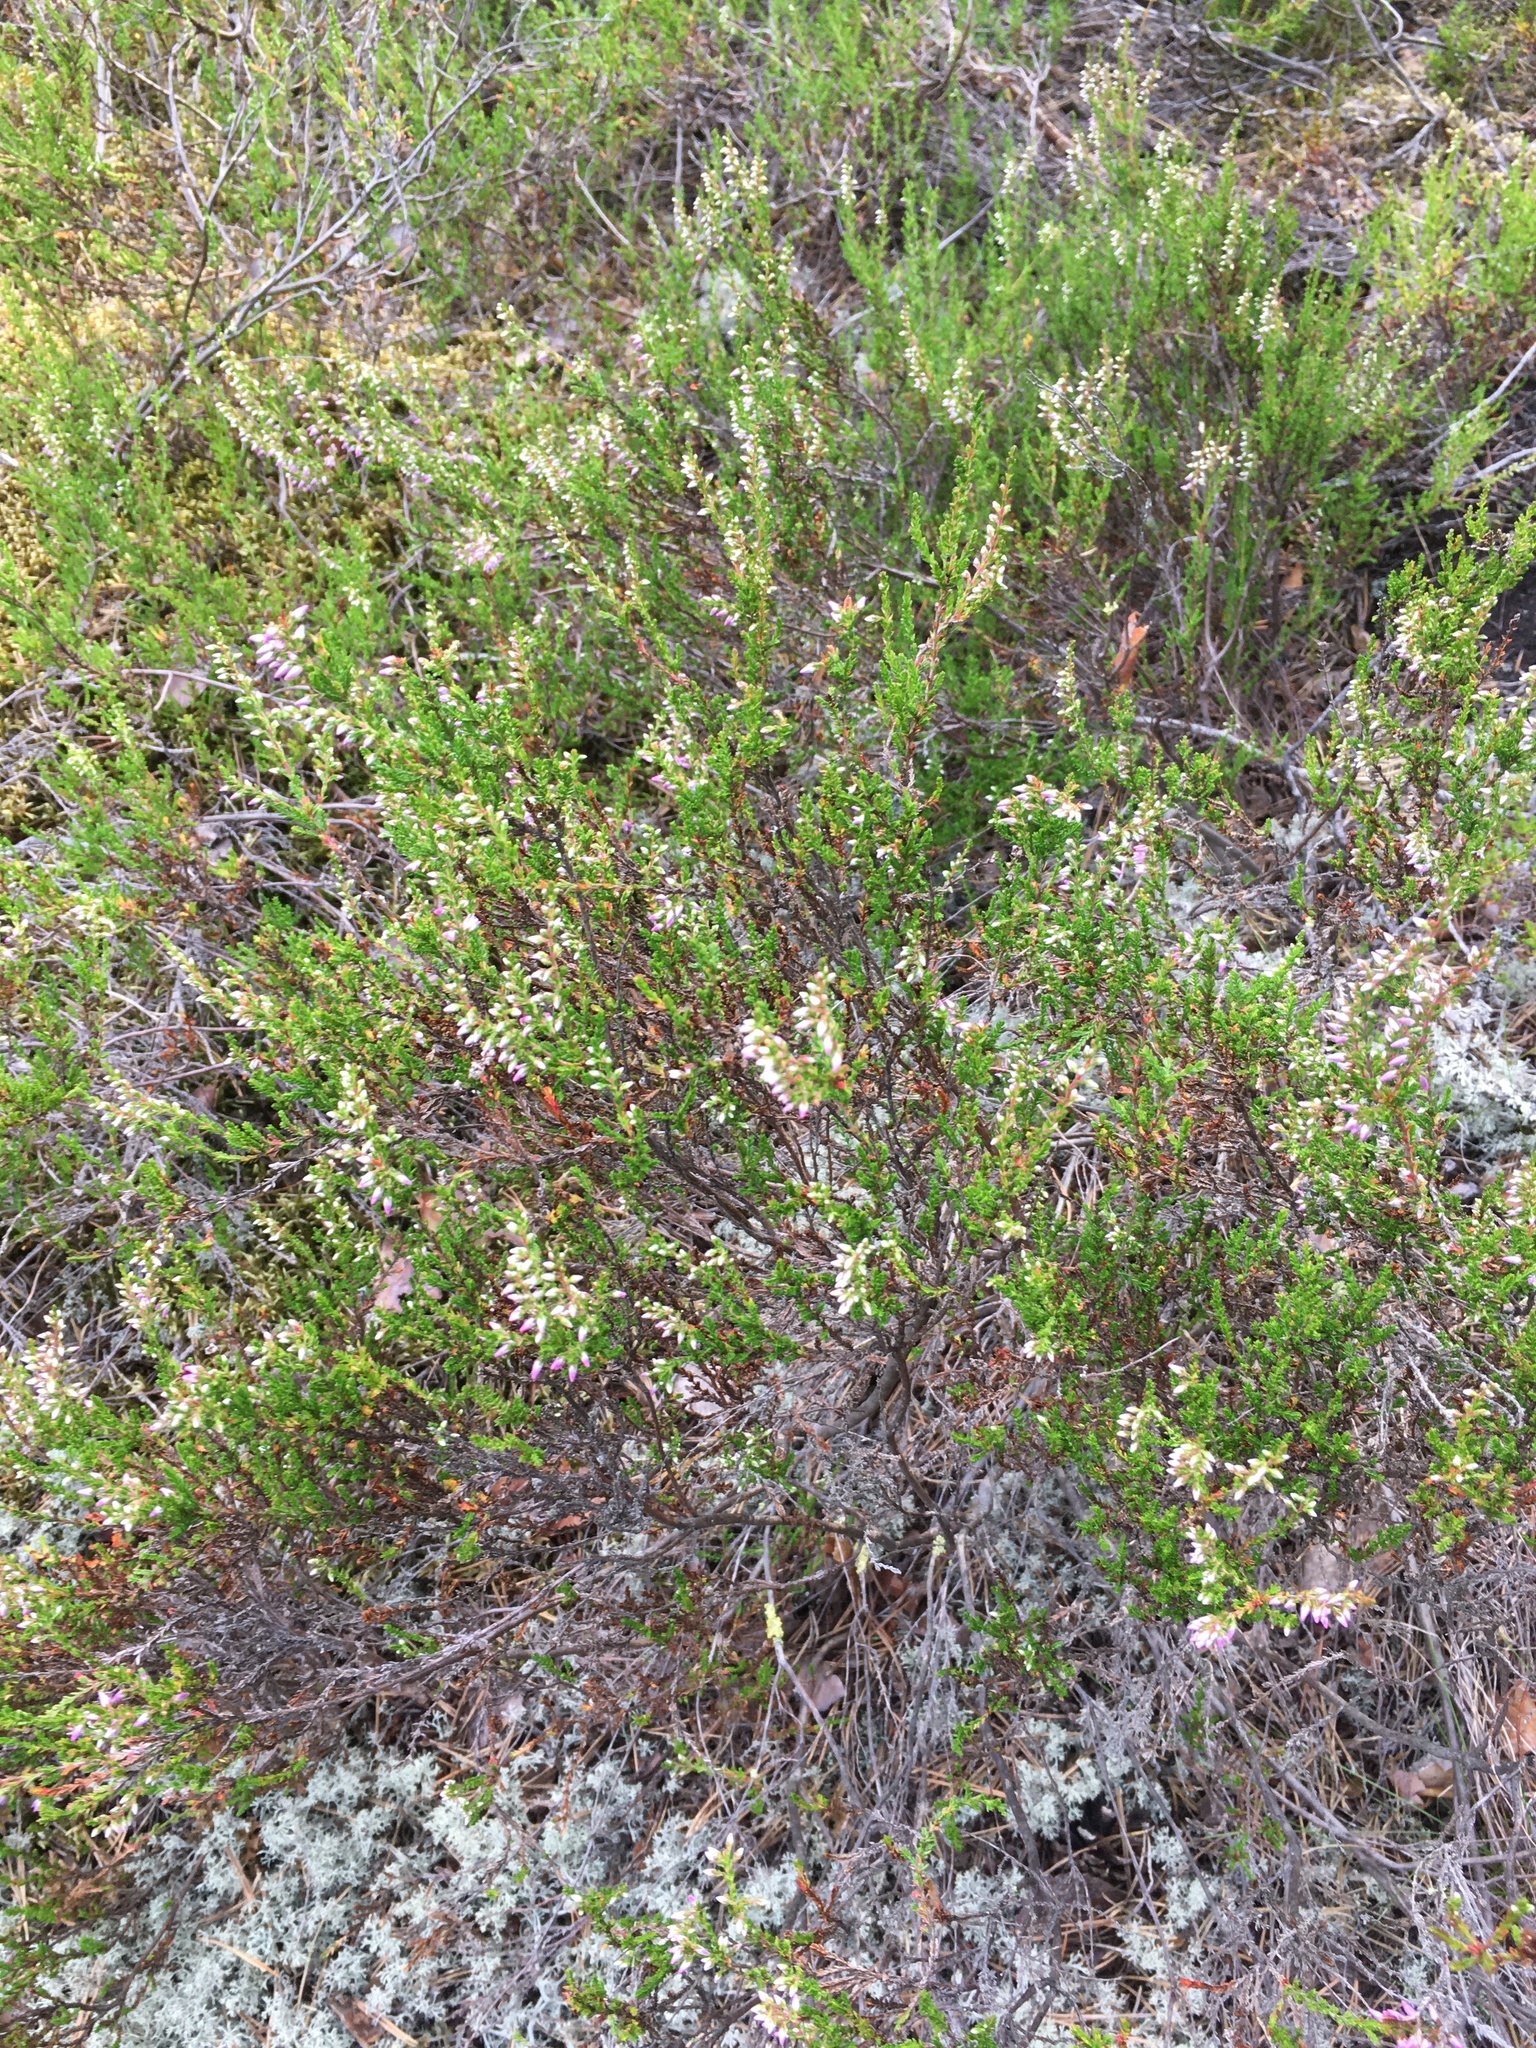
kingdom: Plantae
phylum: Tracheophyta
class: Magnoliopsida
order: Ericales
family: Ericaceae
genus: Calluna
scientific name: Calluna vulgaris
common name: Heather
